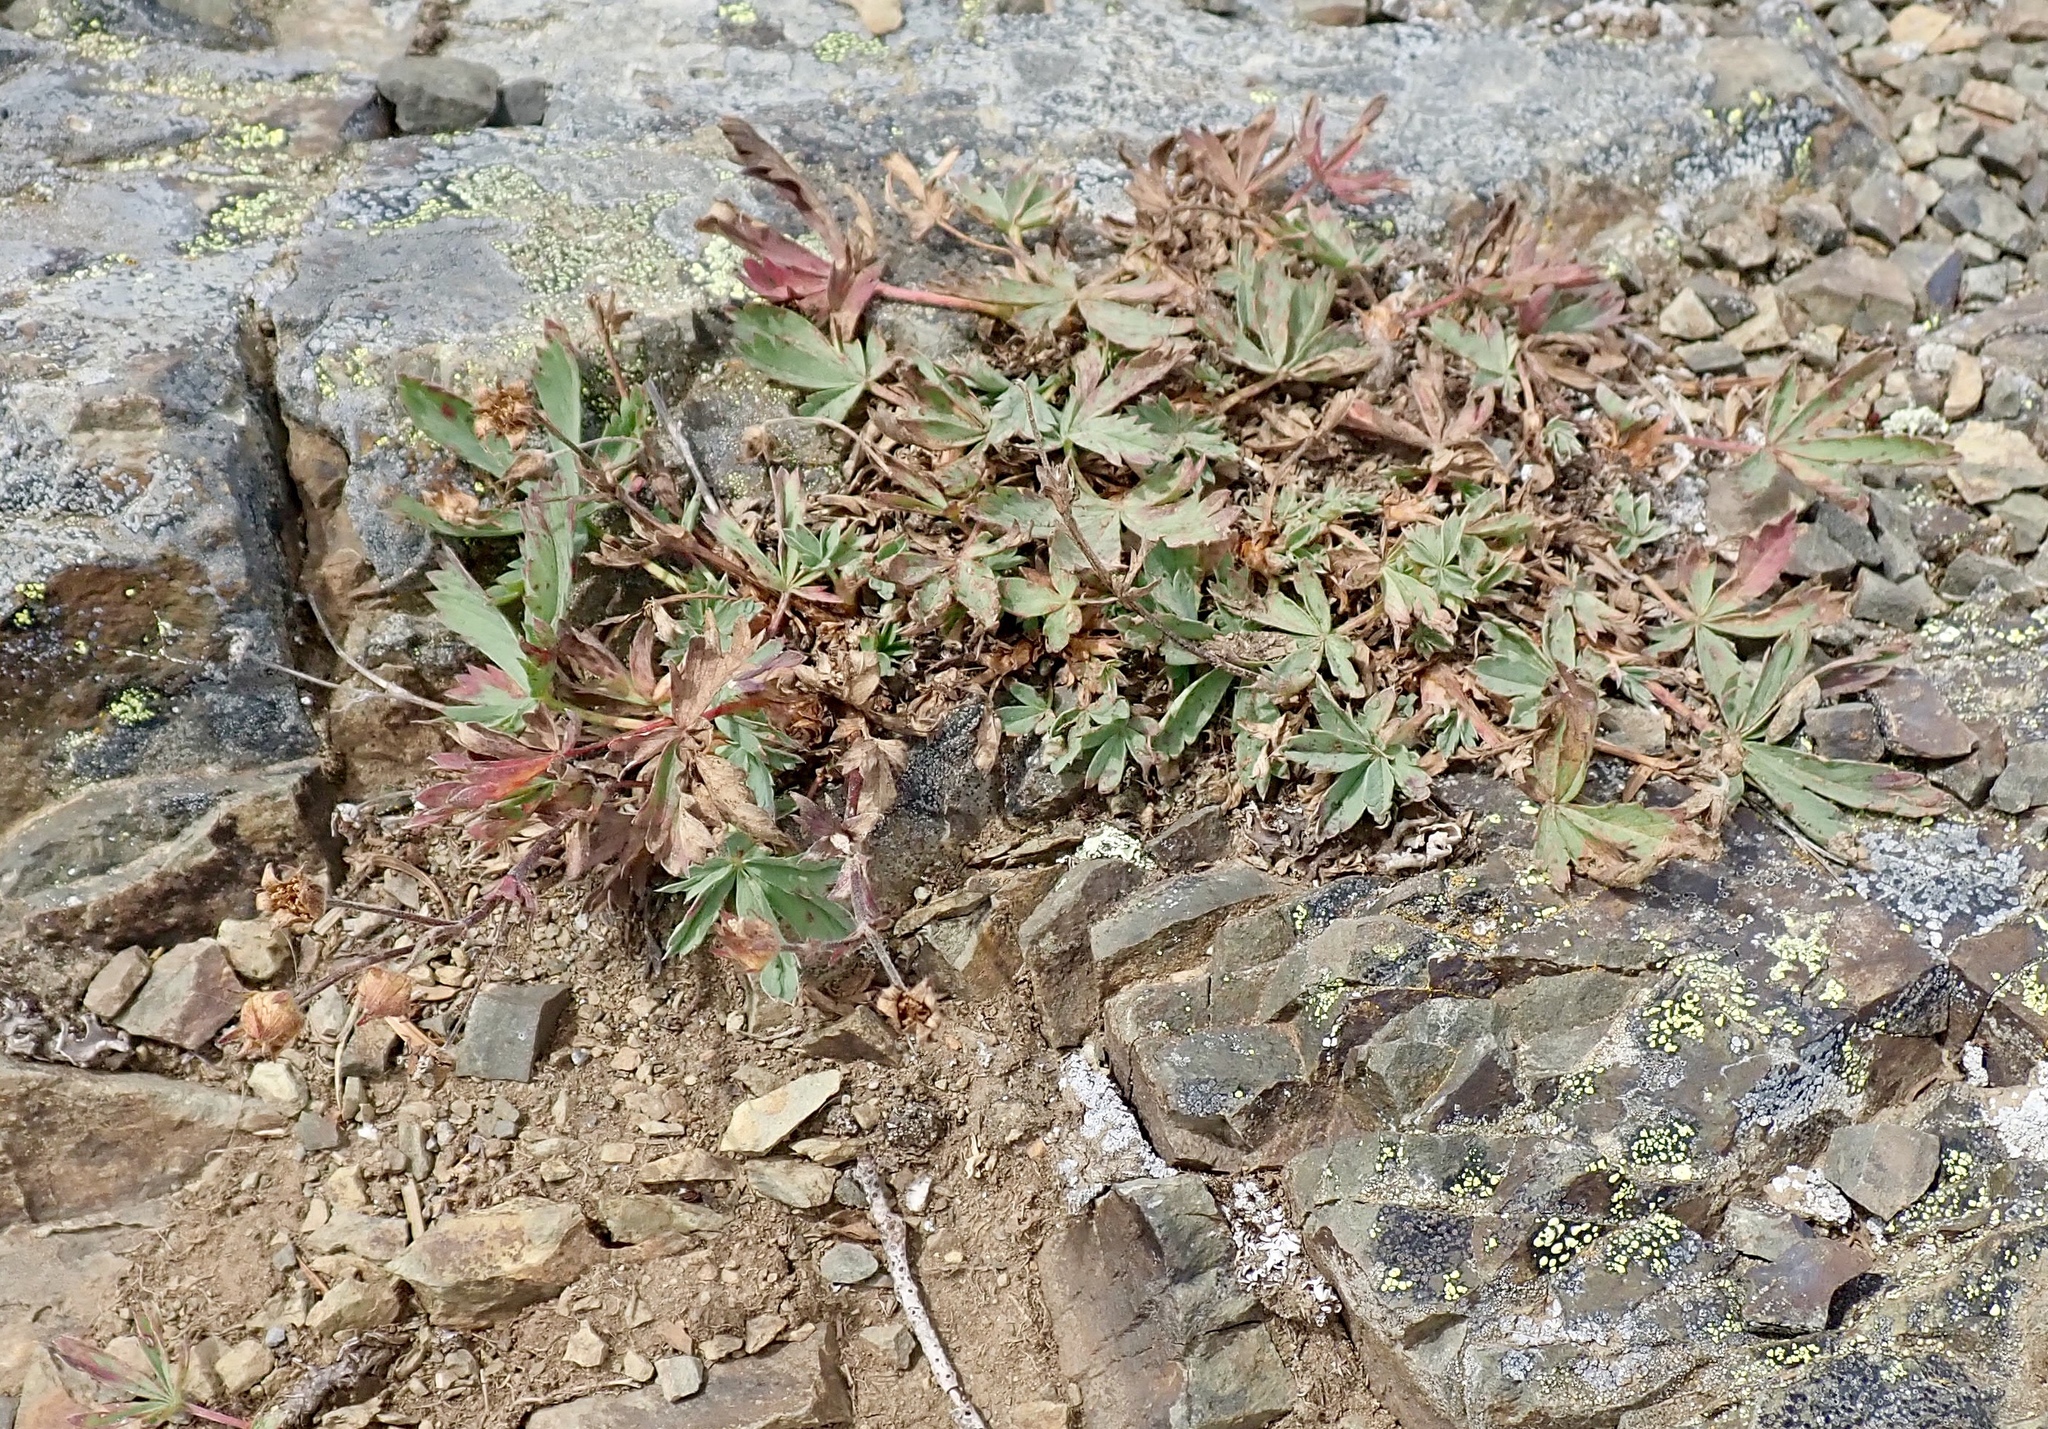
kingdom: Plantae
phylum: Tracheophyta
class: Magnoliopsida
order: Rosales
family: Rosaceae
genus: Potentilla
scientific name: Potentilla glaucophylla
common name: Blue-leaved cinquefoil
